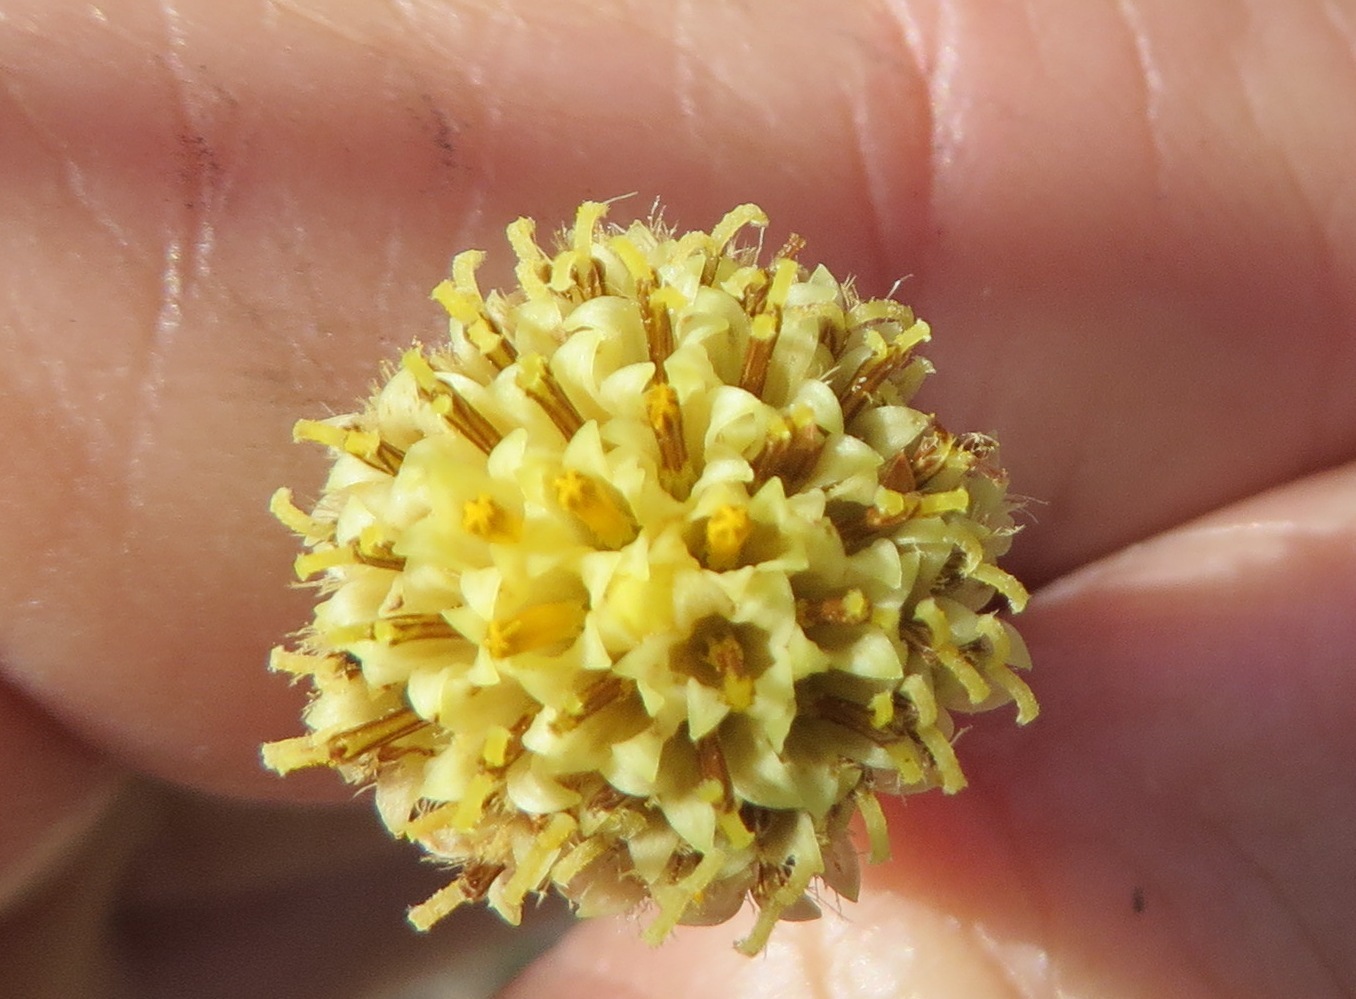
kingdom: Plantae
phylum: Tracheophyta
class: Magnoliopsida
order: Asterales
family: Asteraceae
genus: Senecio
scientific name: Senecio triqueter
